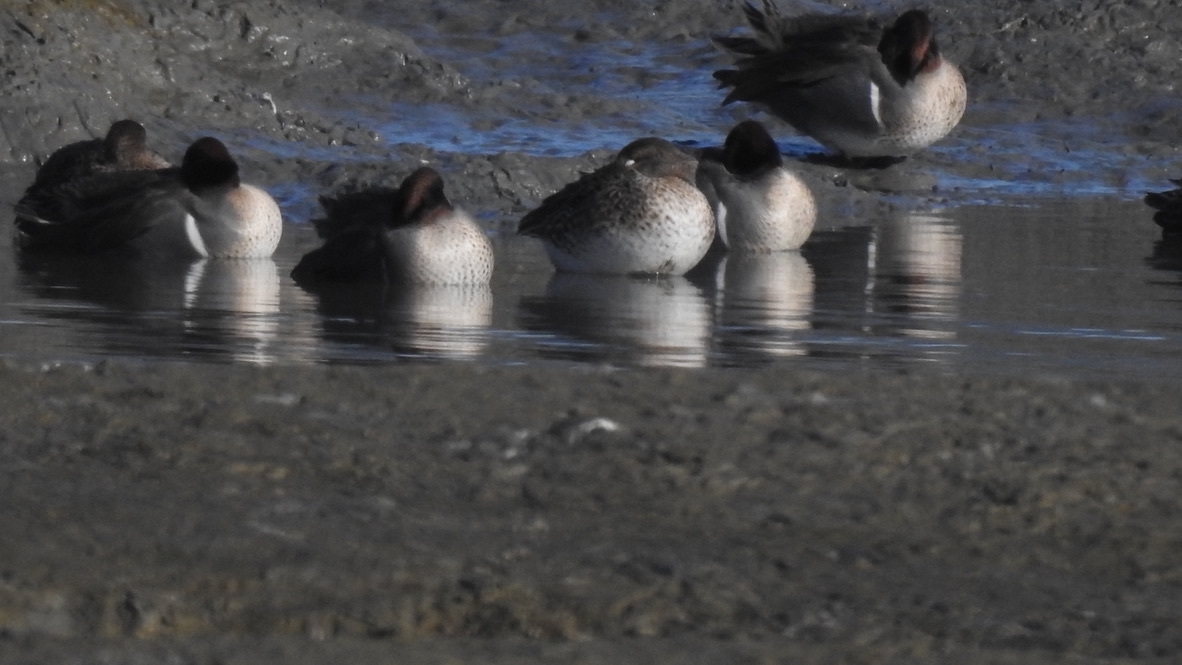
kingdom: Animalia
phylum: Chordata
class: Aves
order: Anseriformes
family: Anatidae
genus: Anas
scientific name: Anas crecca
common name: Eurasian teal
